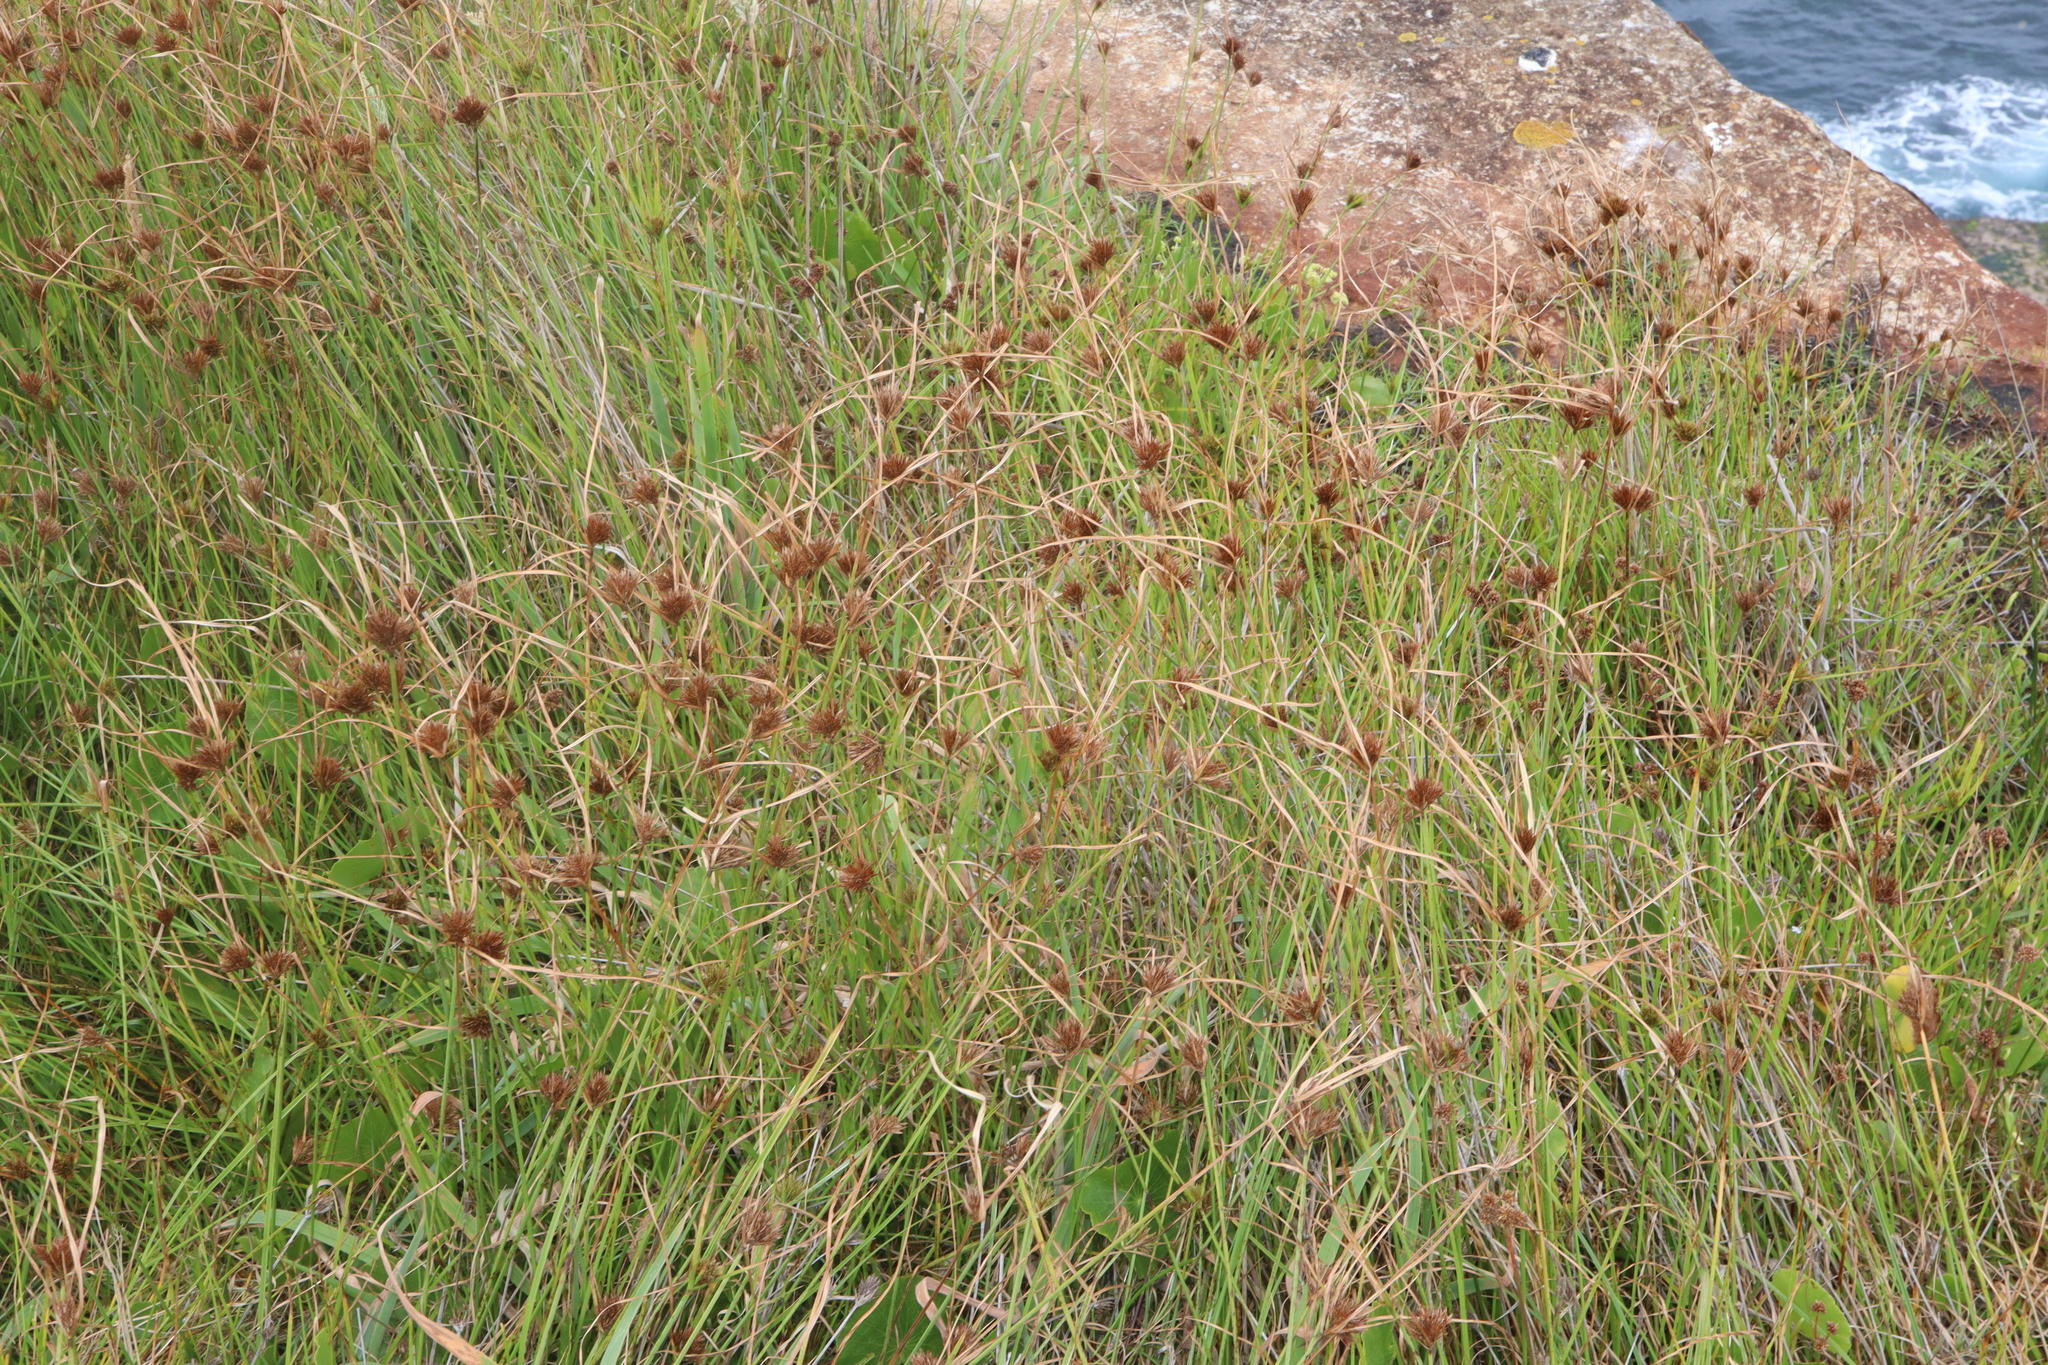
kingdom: Plantae
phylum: Tracheophyta
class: Liliopsida
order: Poales
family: Cyperaceae
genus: Cyperus
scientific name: Cyperus polystachyos
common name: Bunchy flat sedge
